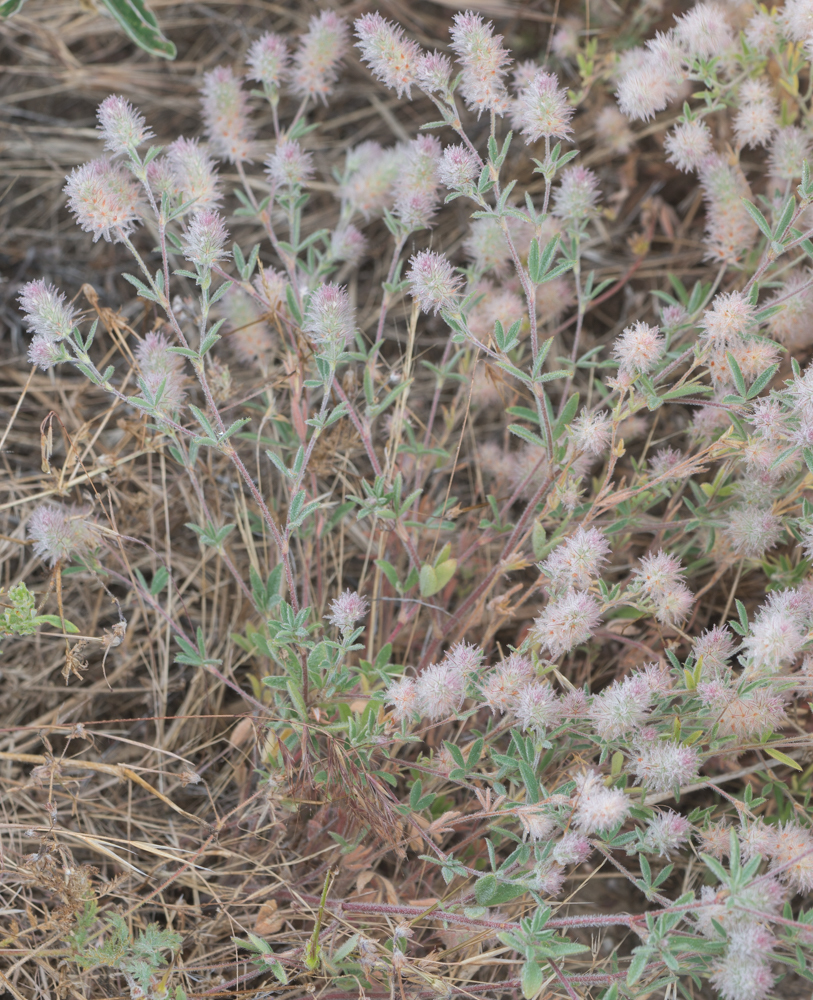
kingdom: Plantae
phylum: Tracheophyta
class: Magnoliopsida
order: Fabales
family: Fabaceae
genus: Trifolium
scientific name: Trifolium arvense
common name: Hare's-foot clover
